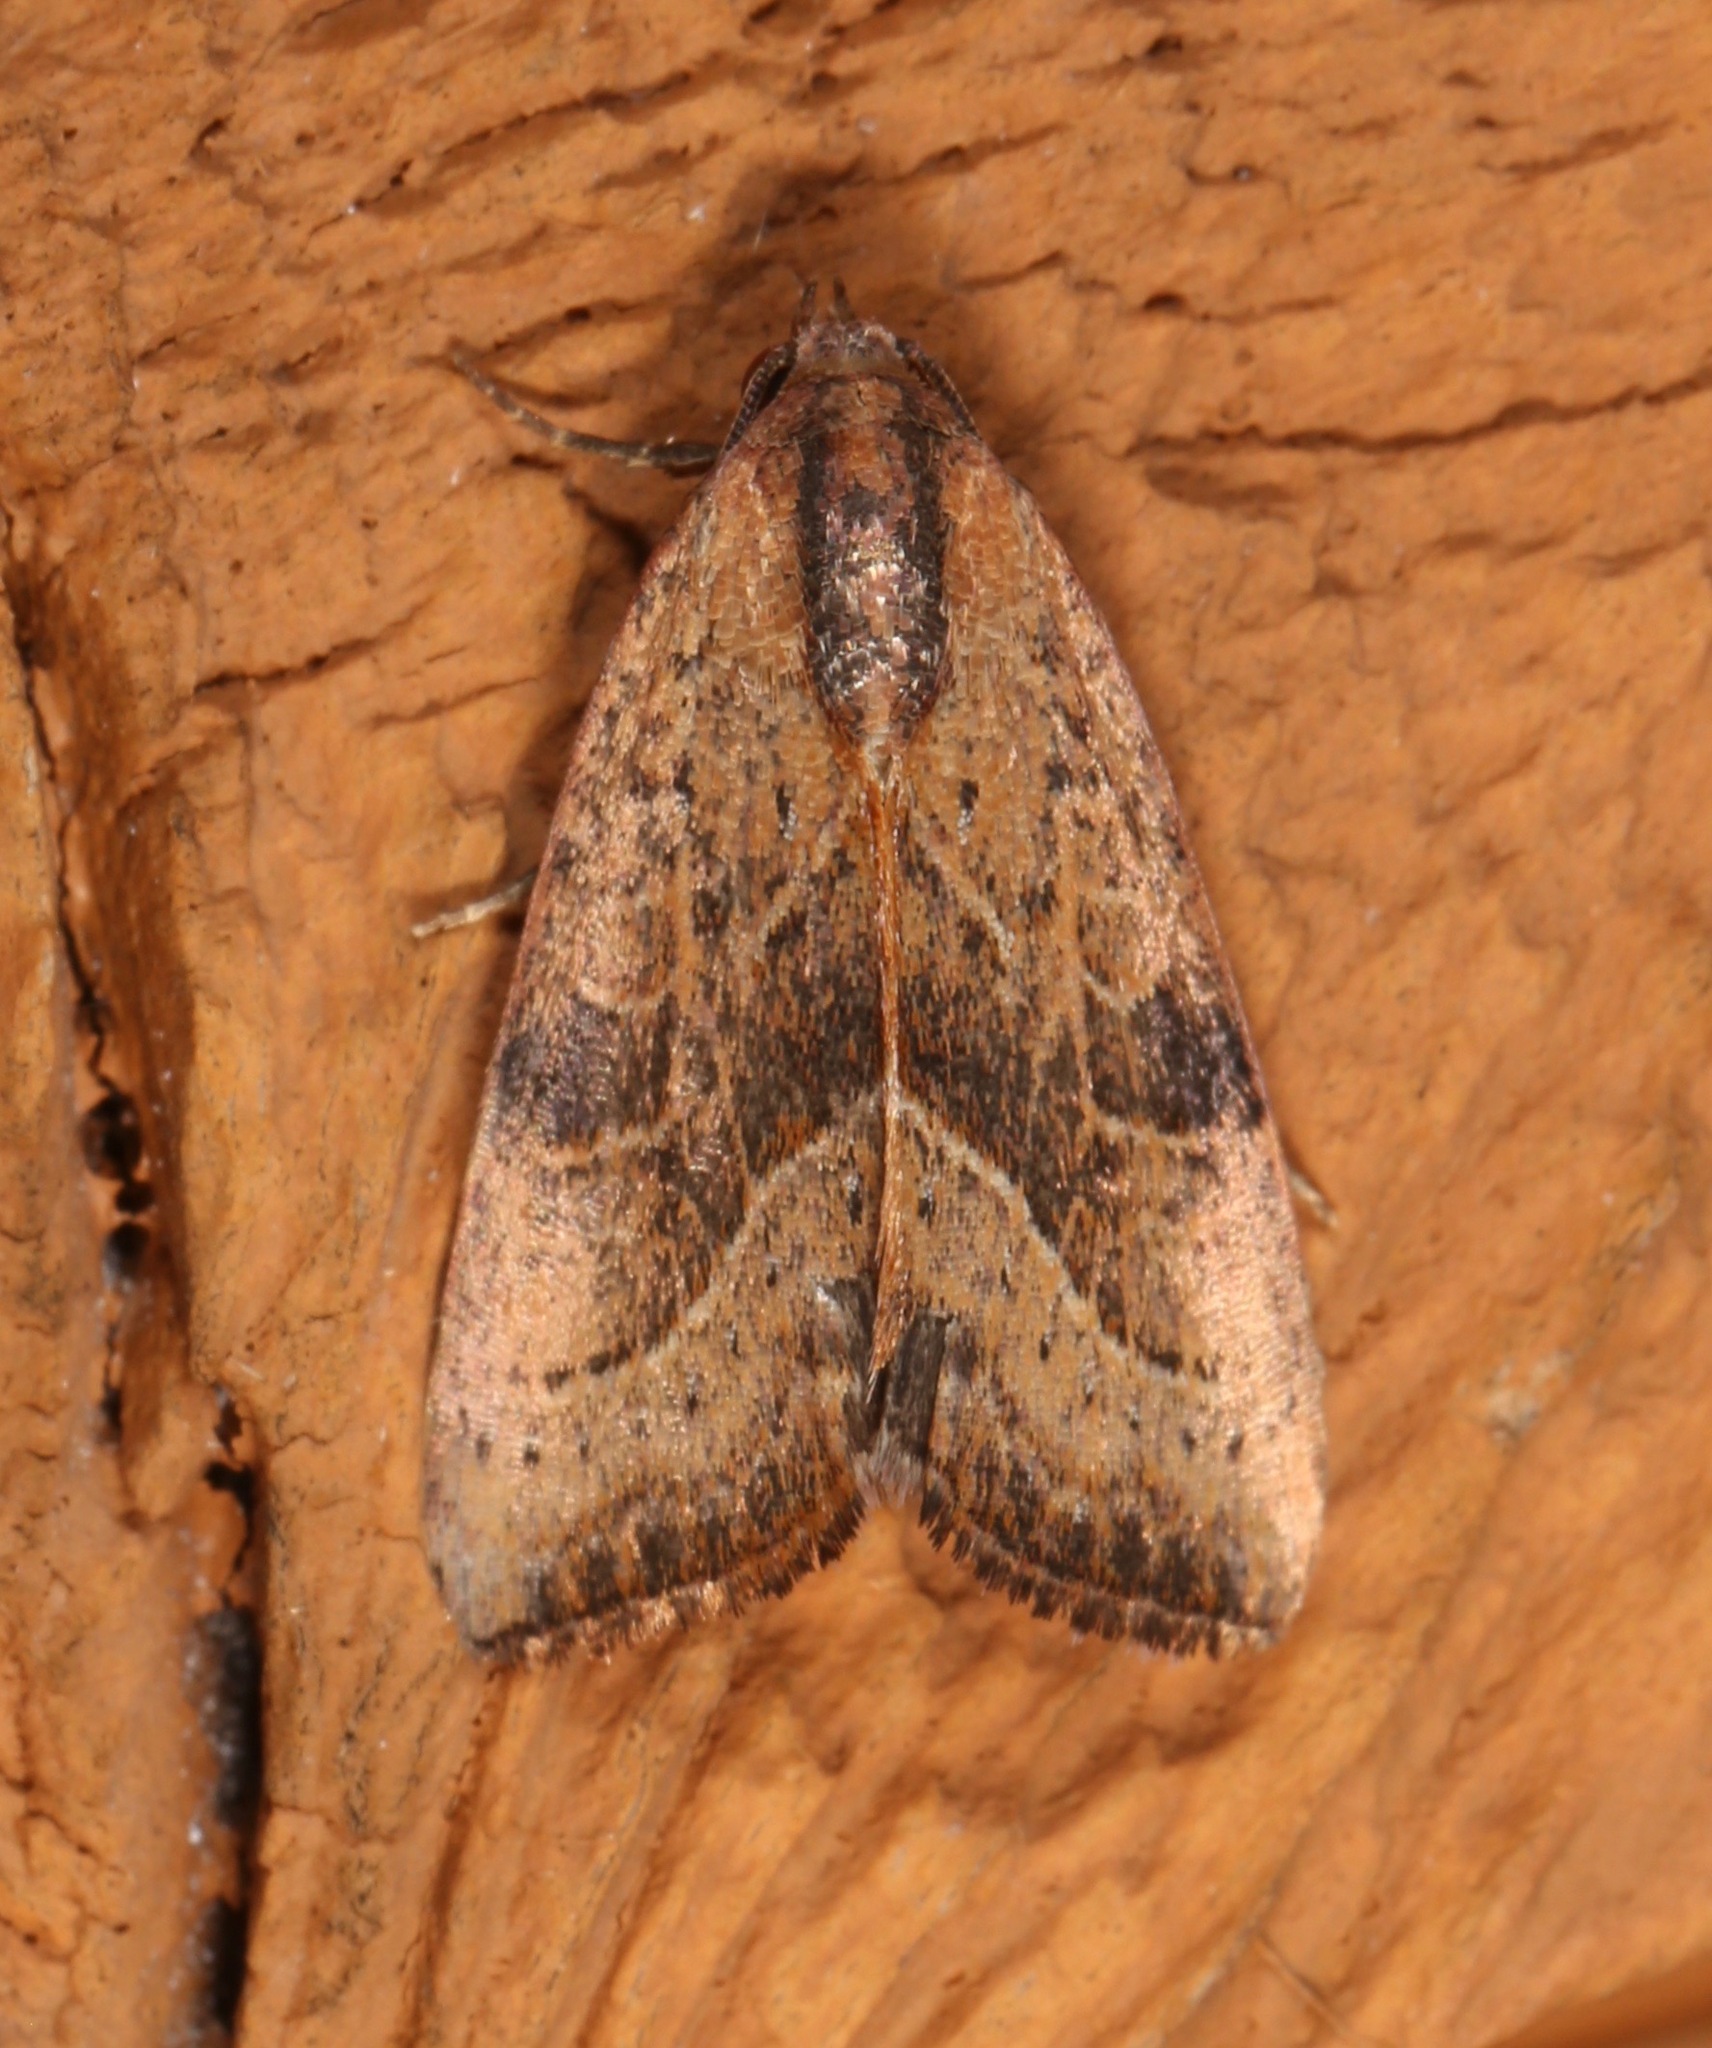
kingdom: Animalia
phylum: Arthropoda
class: Insecta
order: Lepidoptera
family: Noctuidae
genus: Galgula
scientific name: Galgula partita
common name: Wedgeling
